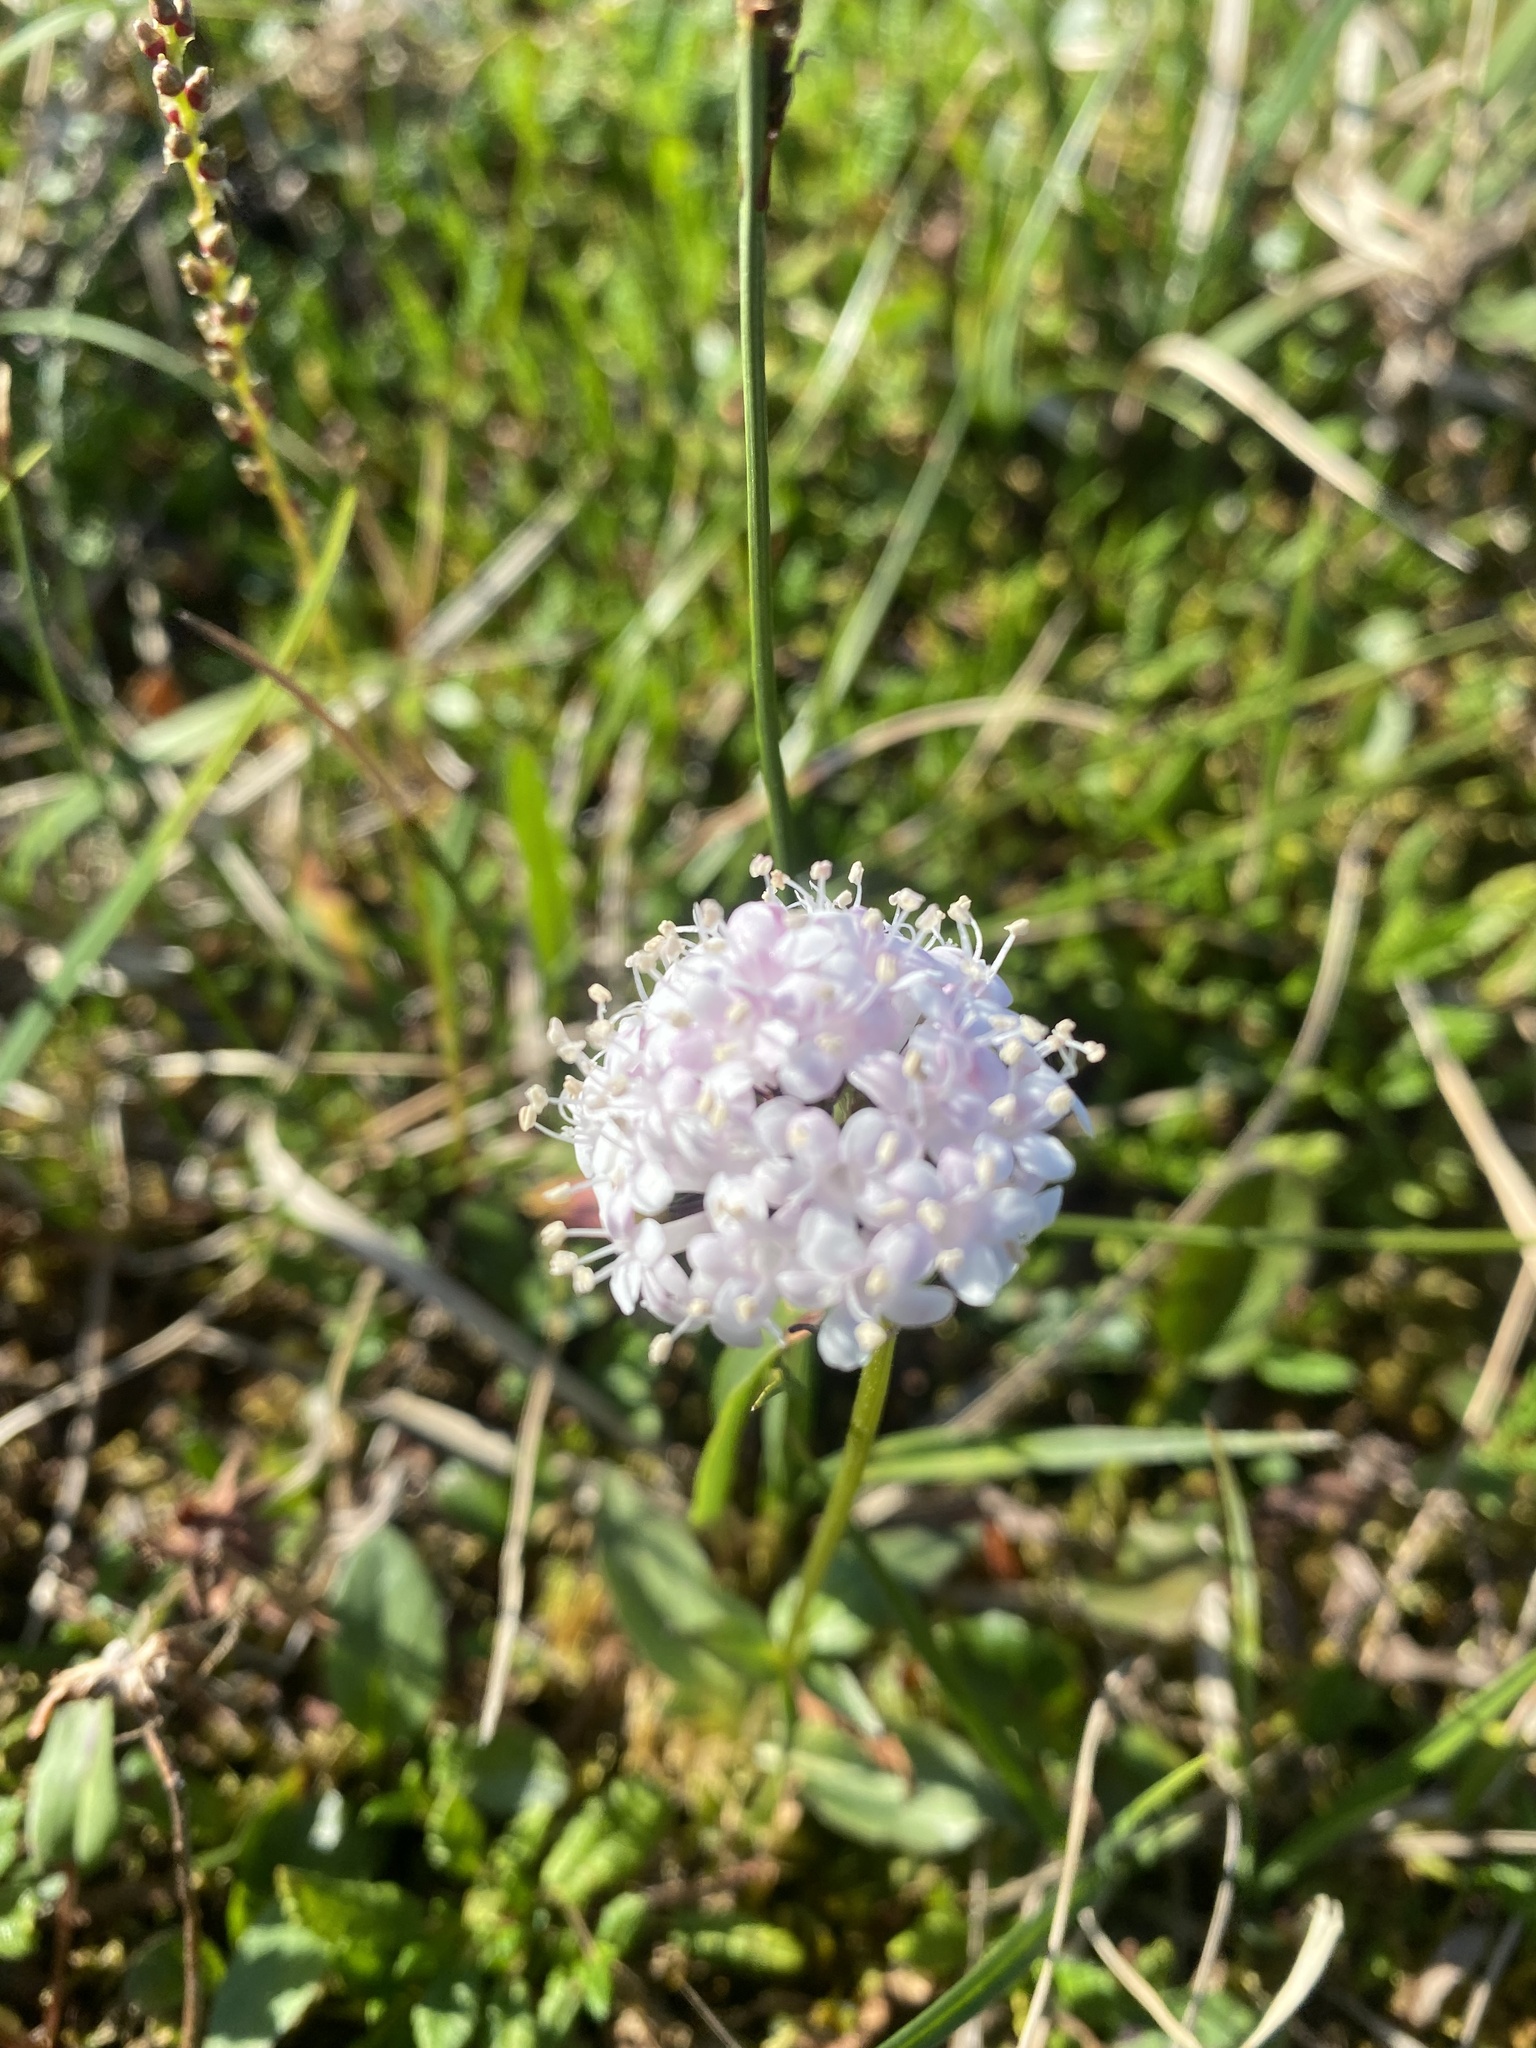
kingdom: Plantae
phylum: Tracheophyta
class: Magnoliopsida
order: Dipsacales
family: Caprifoliaceae
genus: Valeriana
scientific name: Valeriana capitata
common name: Capitate valerian
